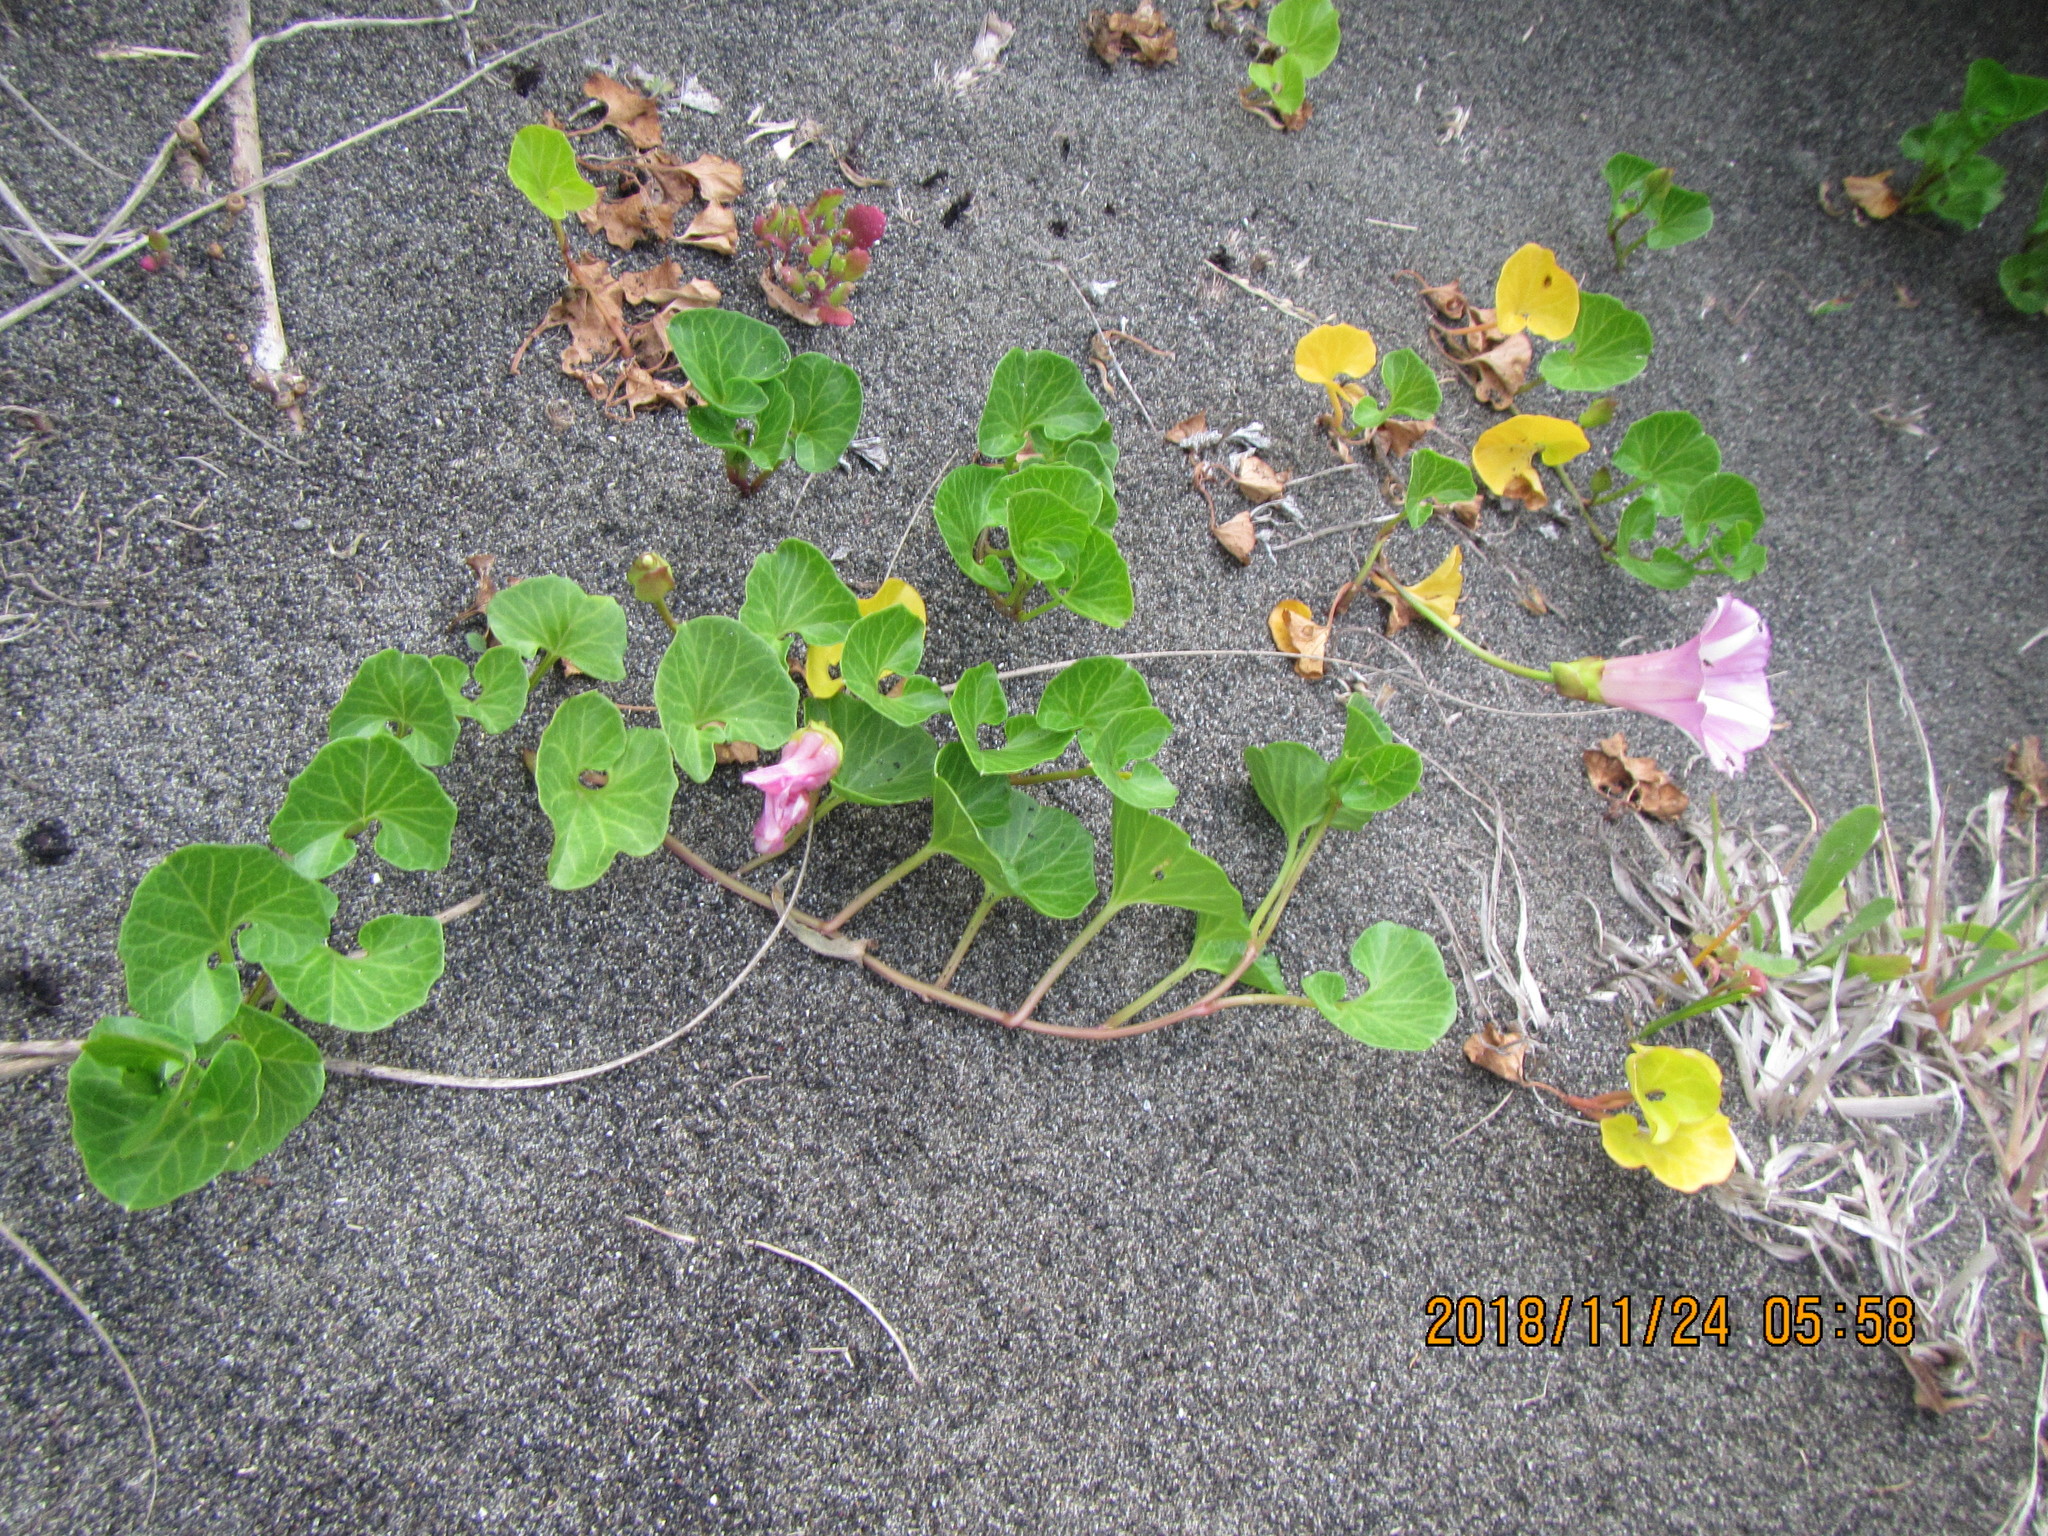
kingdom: Plantae
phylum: Tracheophyta
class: Magnoliopsida
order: Solanales
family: Convolvulaceae
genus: Calystegia
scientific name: Calystegia soldanella
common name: Sea bindweed
